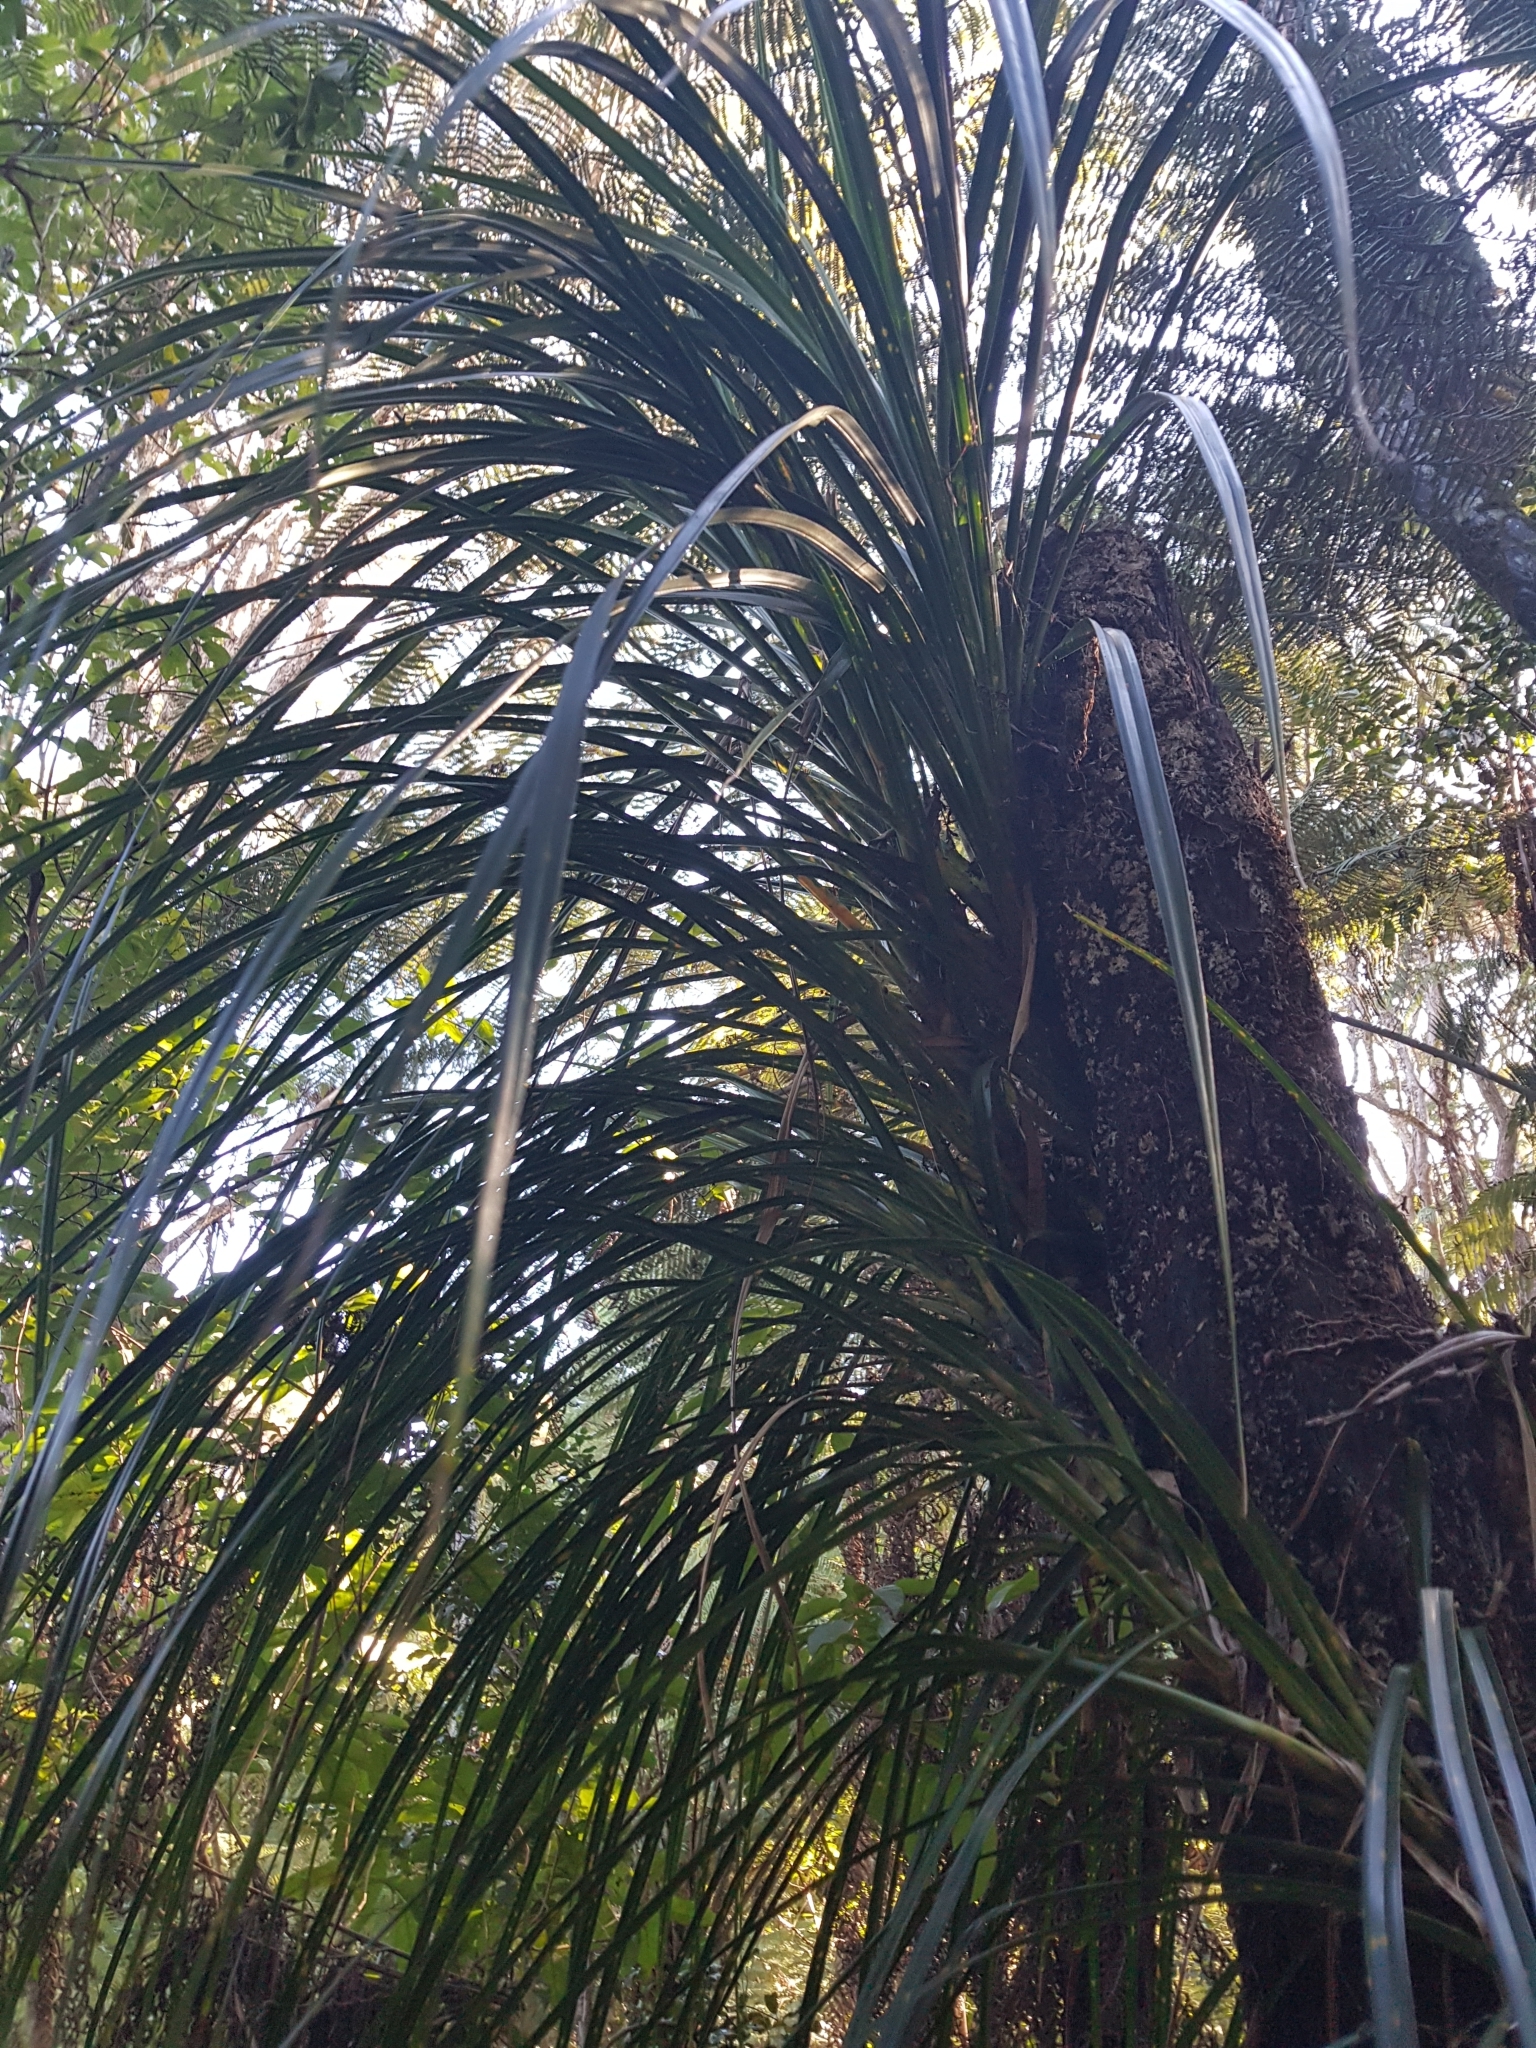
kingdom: Plantae
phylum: Tracheophyta
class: Liliopsida
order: Pandanales
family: Pandanaceae
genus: Freycinetia
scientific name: Freycinetia banksii
